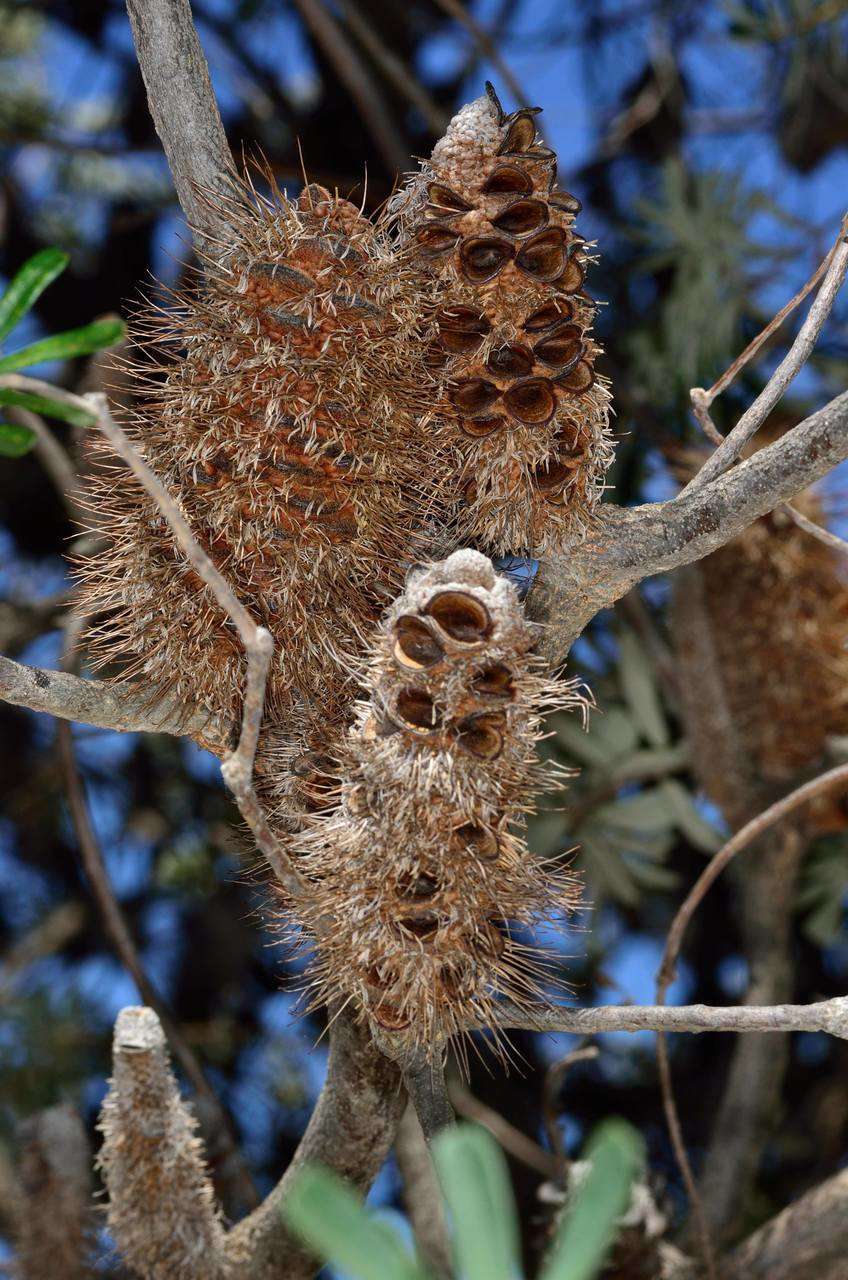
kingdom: Plantae
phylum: Tracheophyta
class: Magnoliopsida
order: Proteales
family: Proteaceae
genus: Banksia
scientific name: Banksia marginata
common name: Silver banksia
